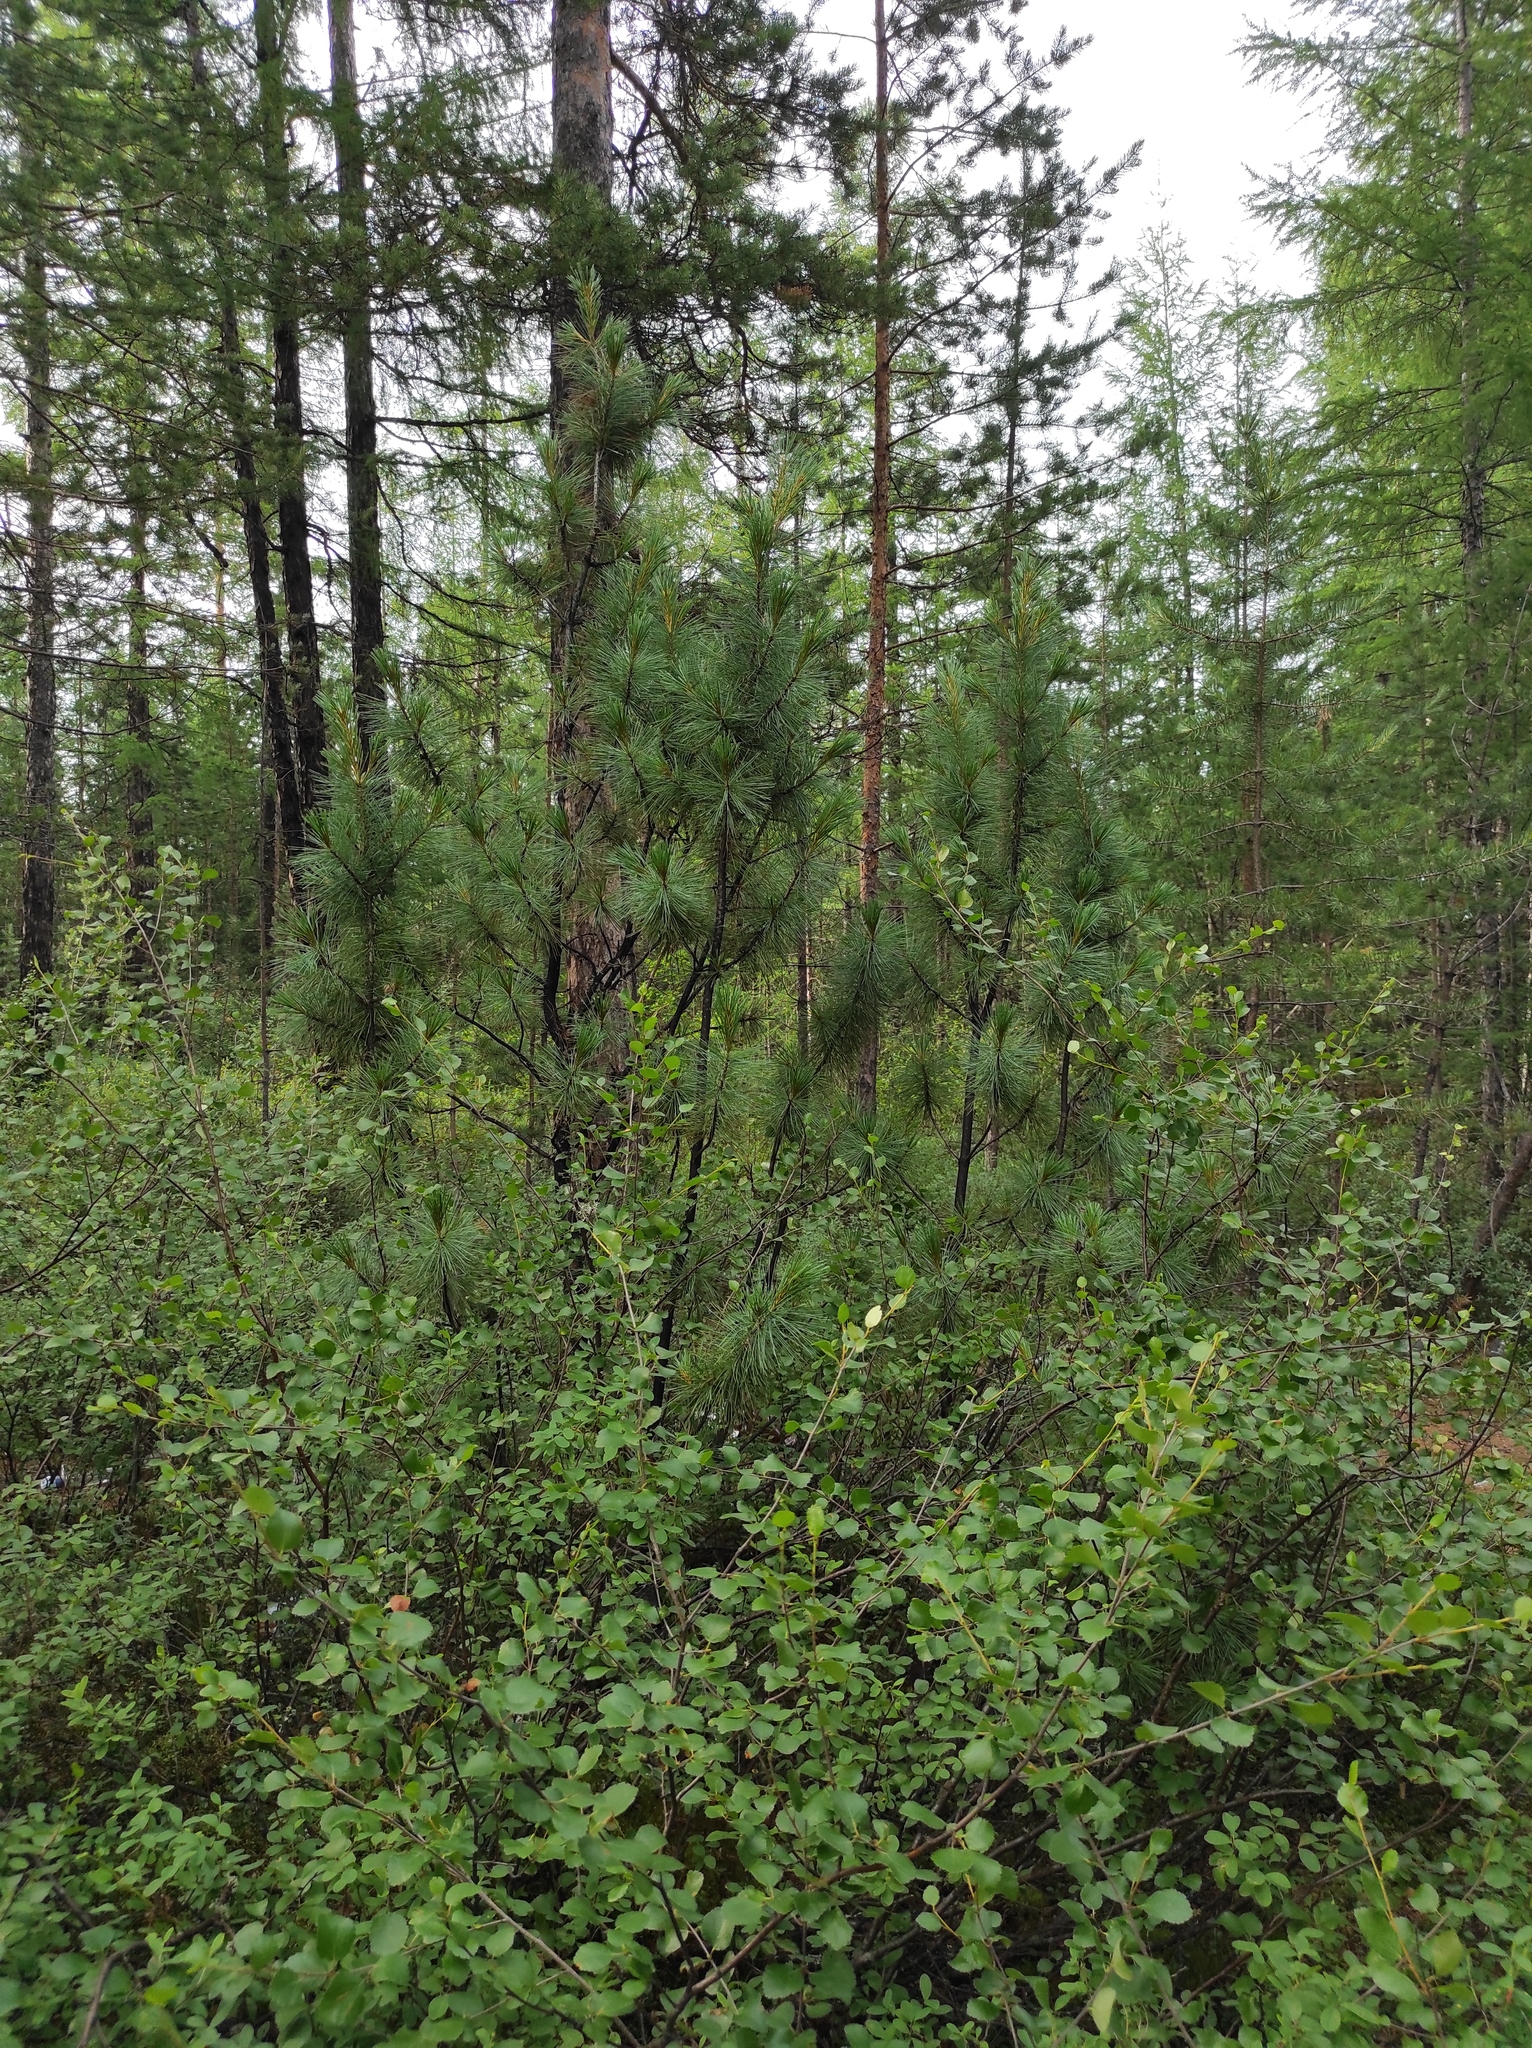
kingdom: Plantae
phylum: Tracheophyta
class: Pinopsida
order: Pinales
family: Pinaceae
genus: Pinus
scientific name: Pinus sylvestris
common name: Scots pine
